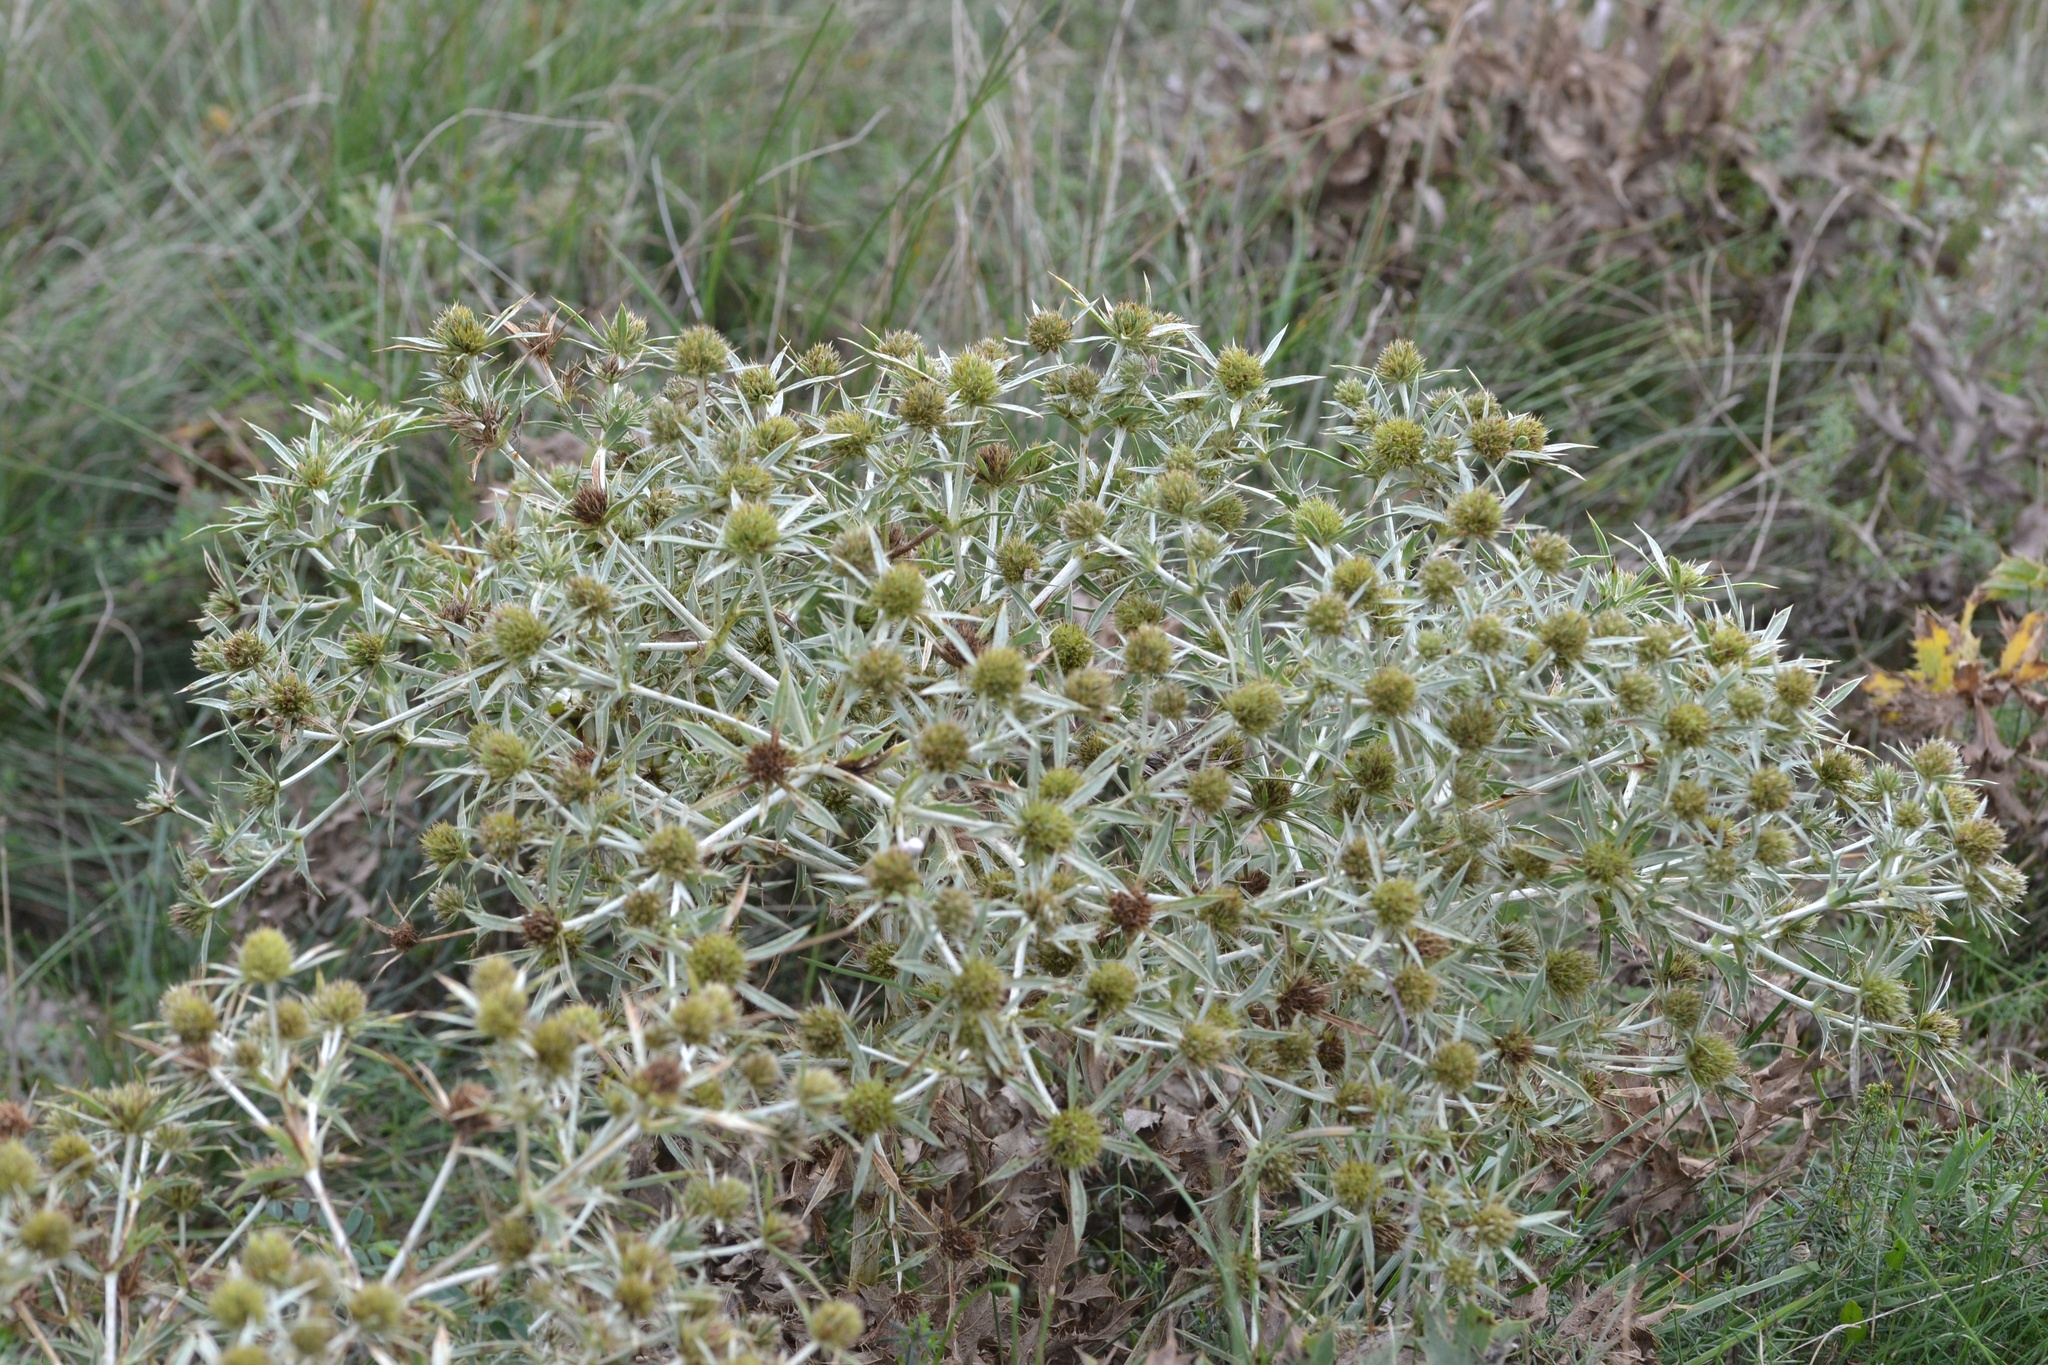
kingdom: Plantae
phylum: Tracheophyta
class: Magnoliopsida
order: Apiales
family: Apiaceae
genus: Eryngium
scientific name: Eryngium campestre
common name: Field eryngo
